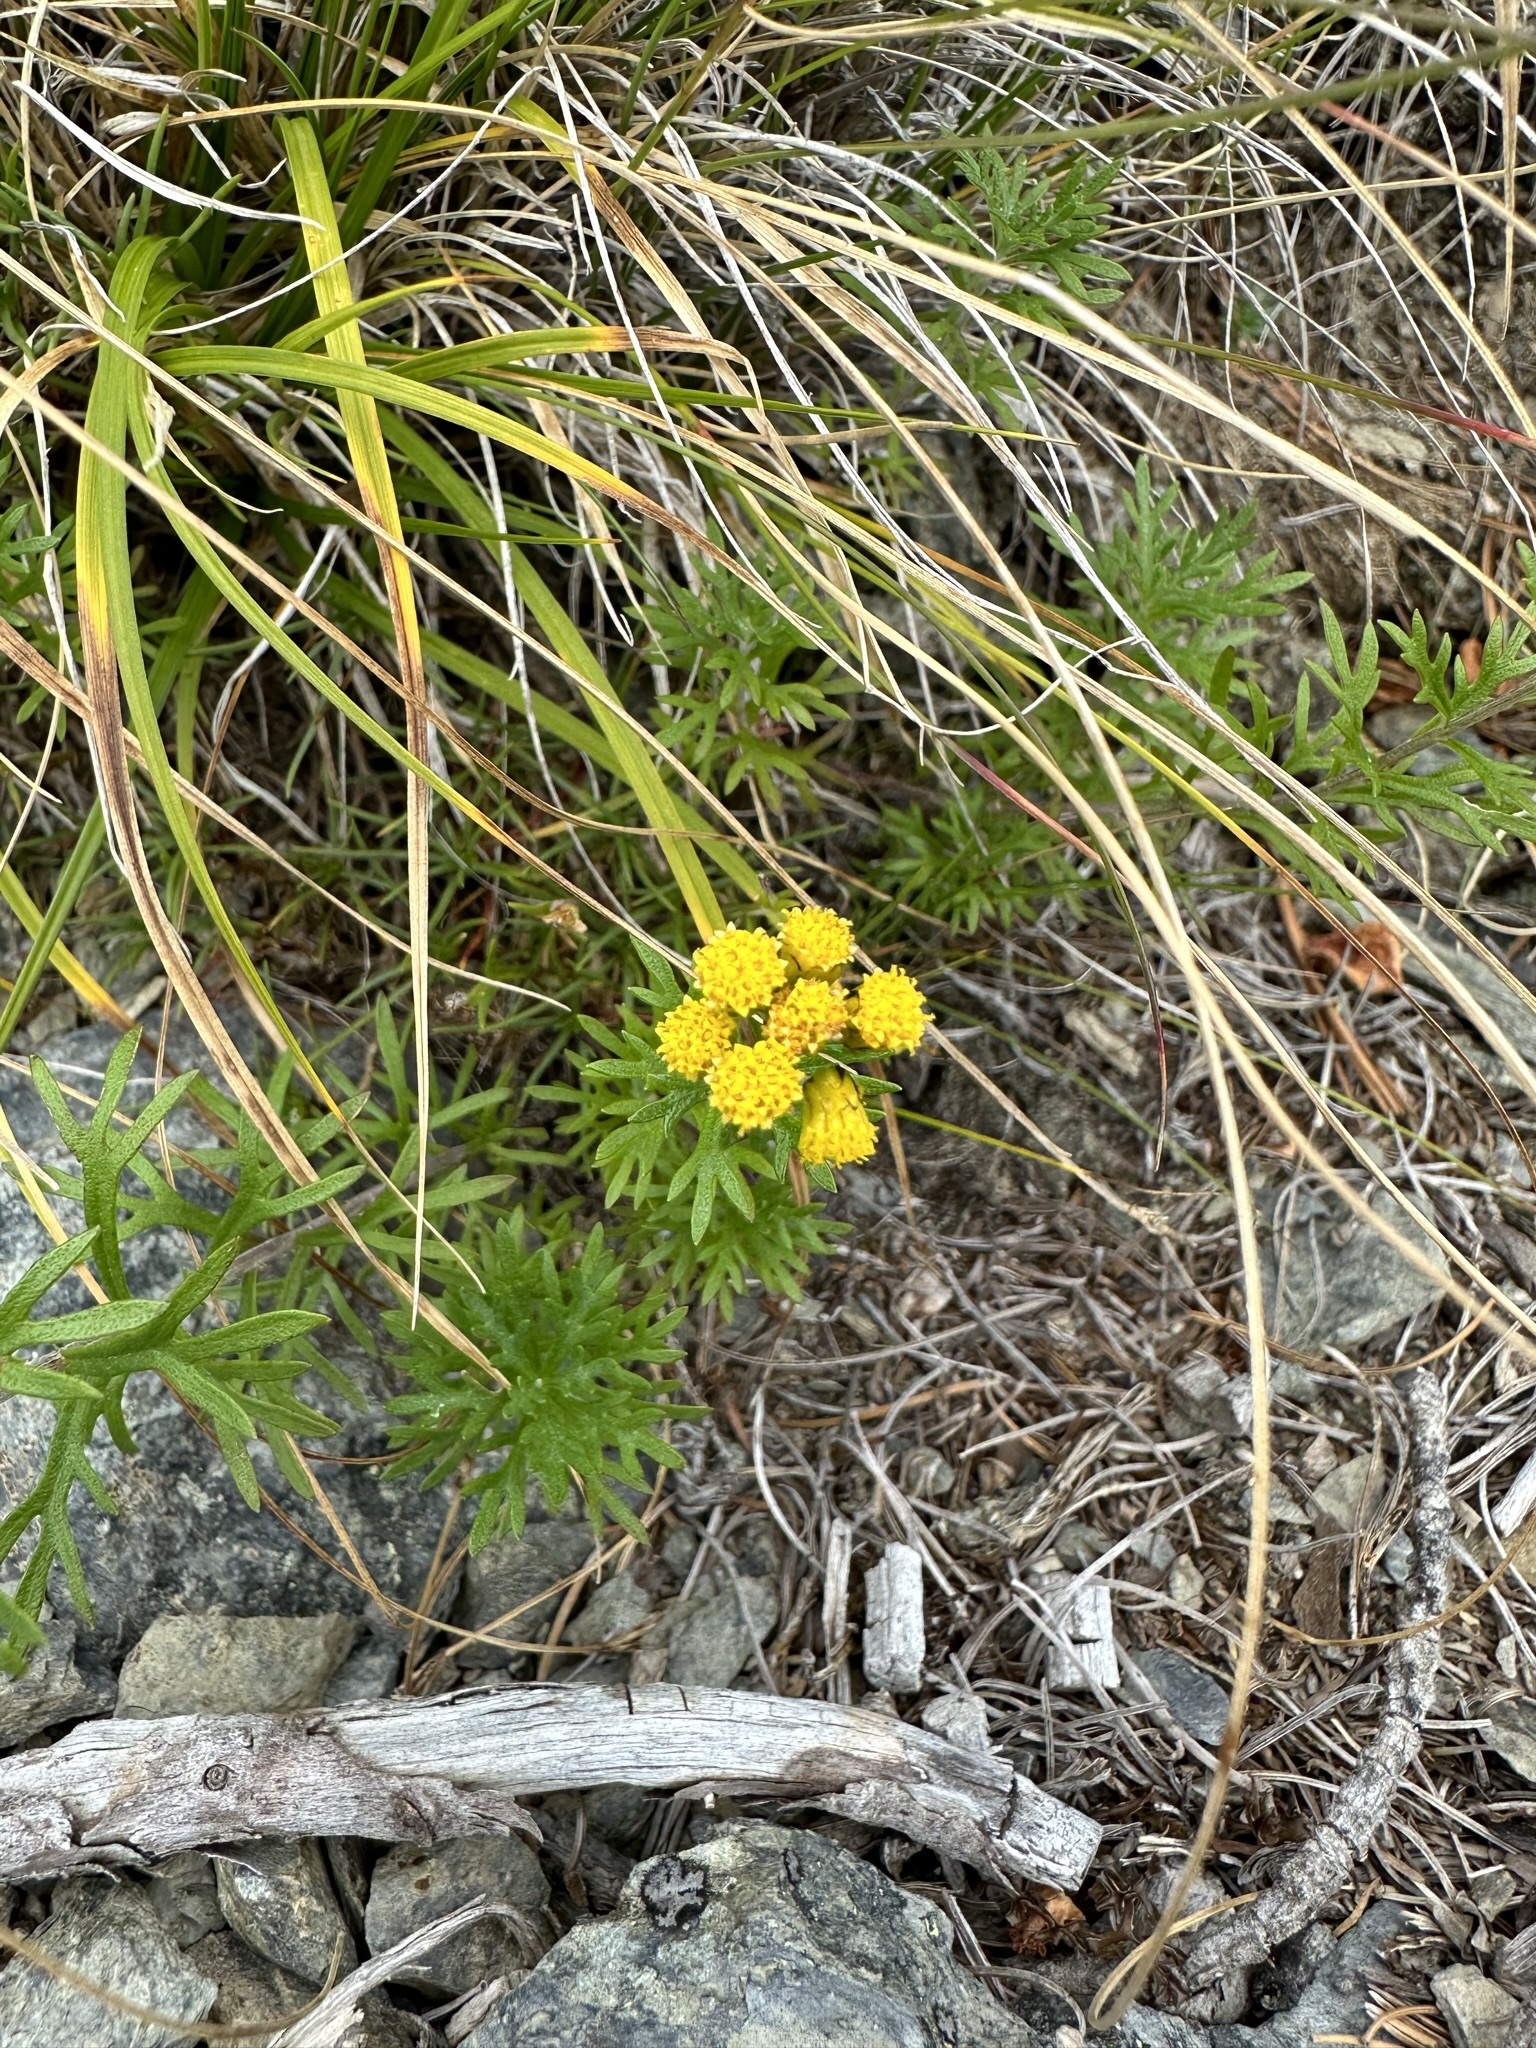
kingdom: Plantae
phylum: Tracheophyta
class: Magnoliopsida
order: Asterales
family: Asteraceae
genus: Ajania
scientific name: Ajania rupestris
